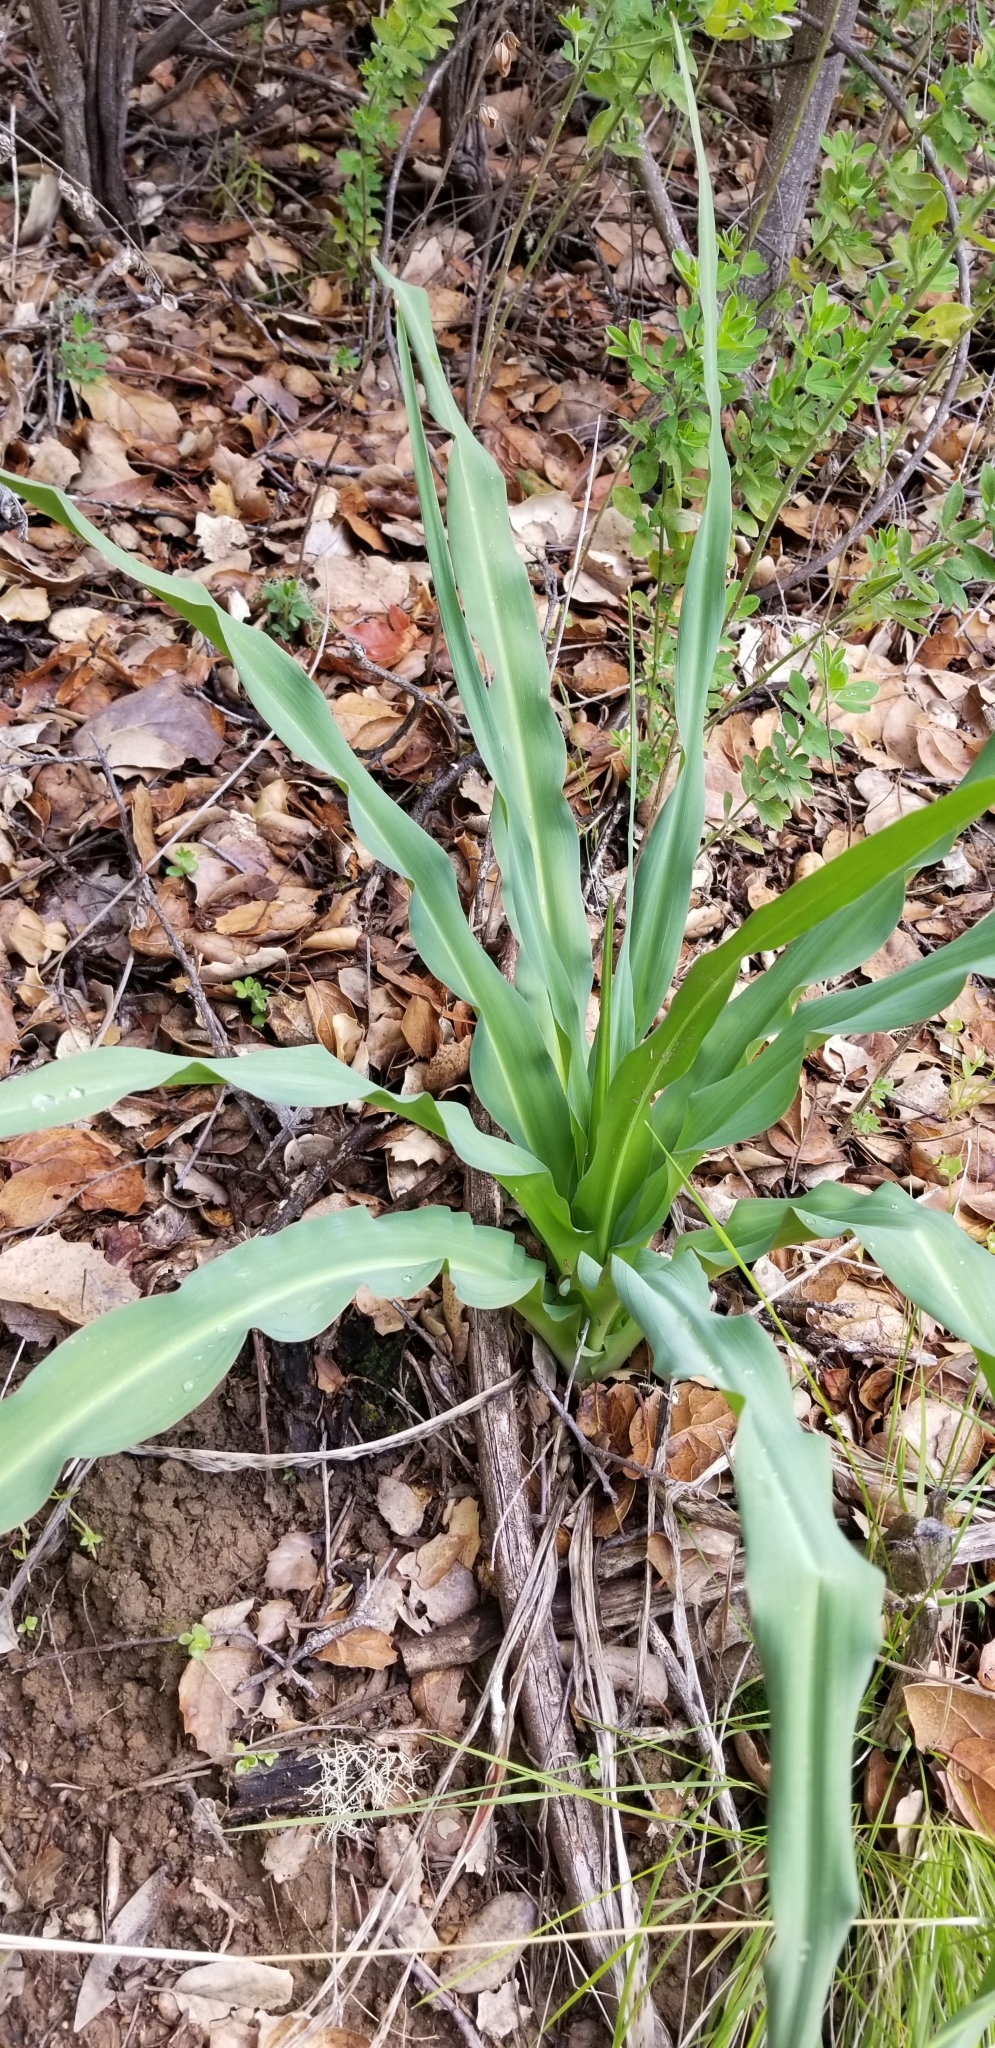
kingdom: Plantae
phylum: Tracheophyta
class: Liliopsida
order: Asparagales
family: Asparagaceae
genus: Chlorogalum
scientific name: Chlorogalum pomeridianum
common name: Amole
